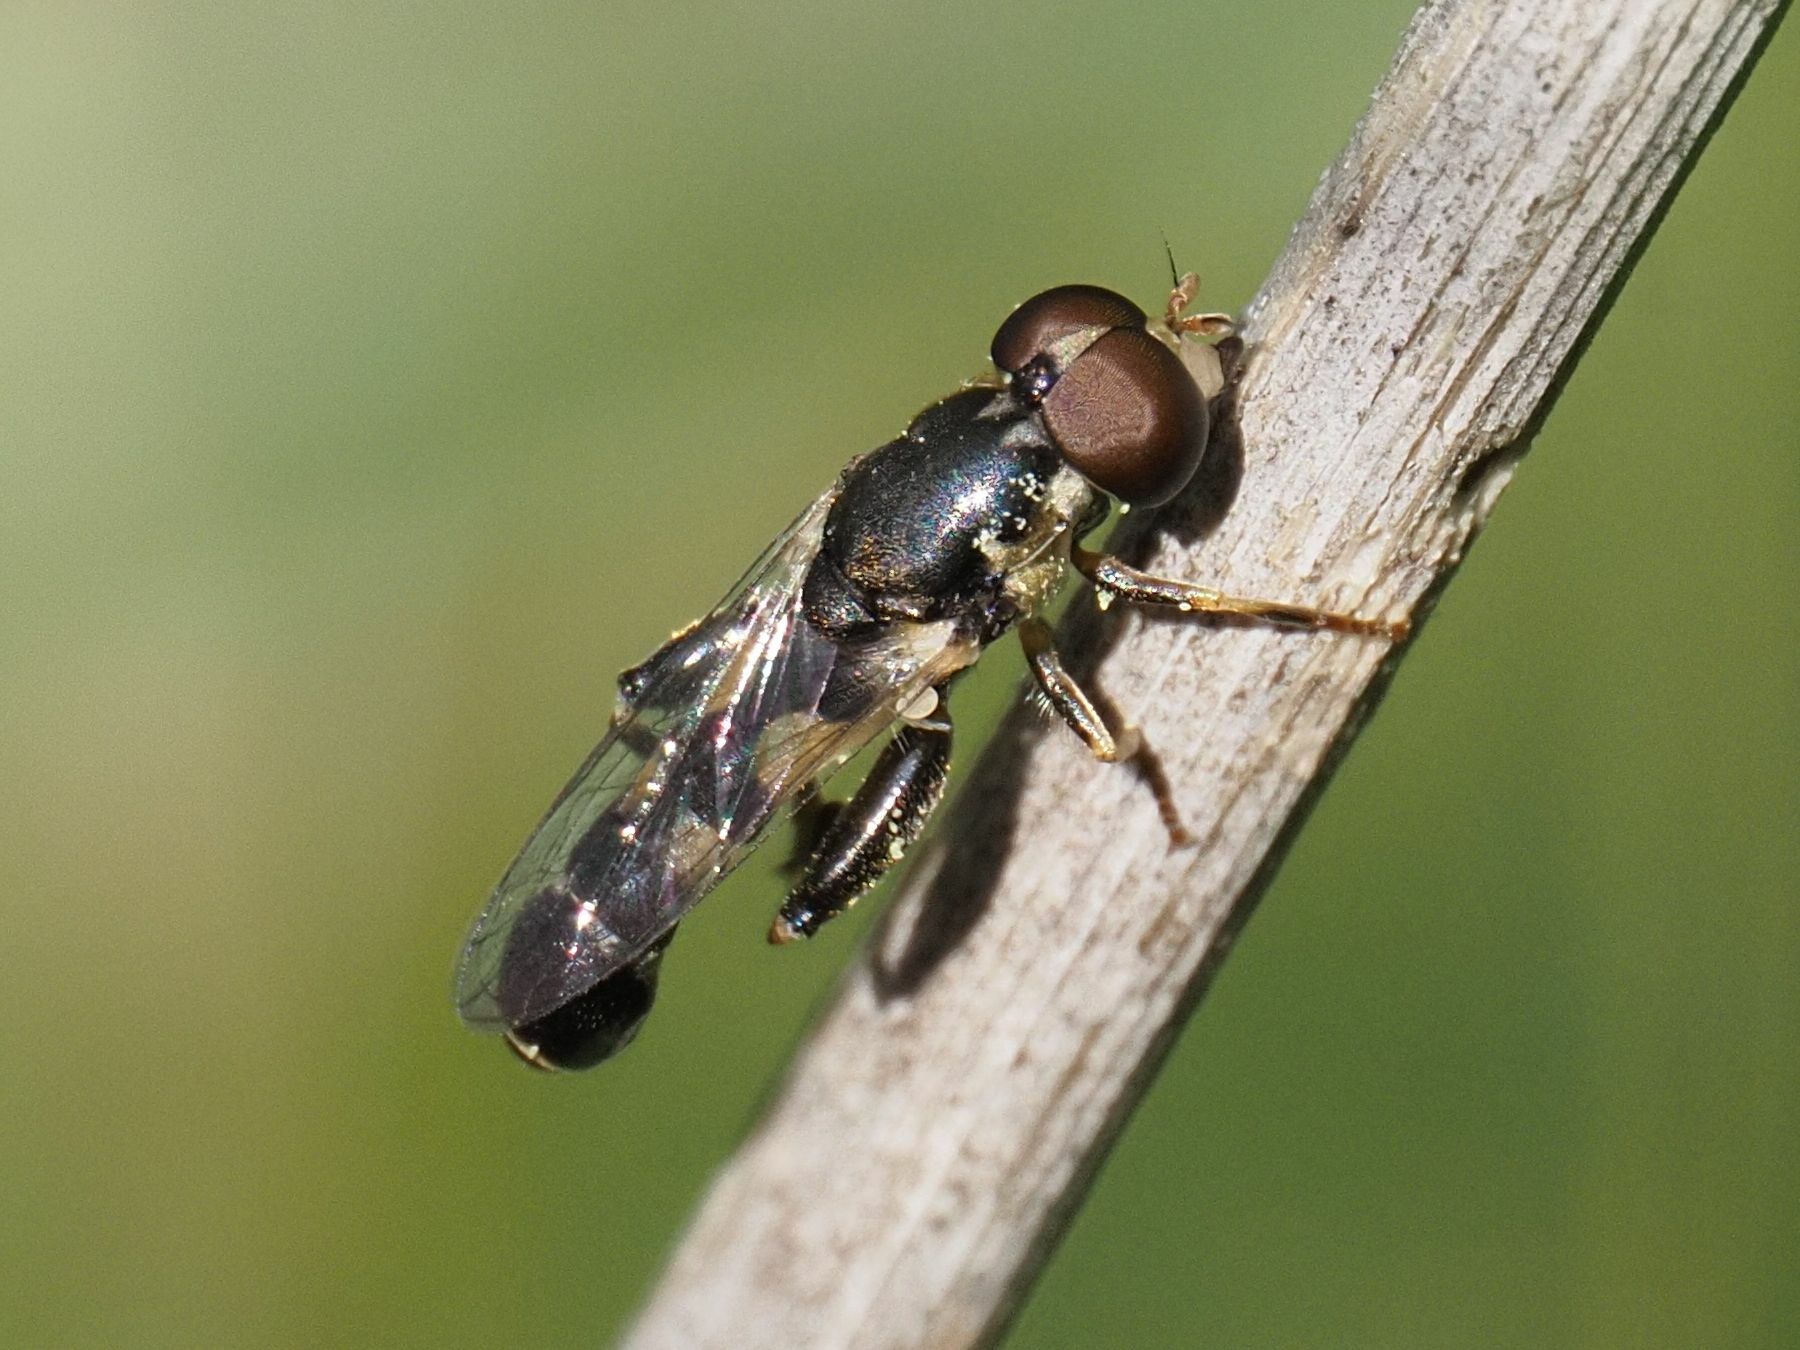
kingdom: Animalia
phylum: Arthropoda
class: Insecta
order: Diptera
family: Syrphidae
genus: Syritta
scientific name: Syritta pipiens
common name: Hover fly
